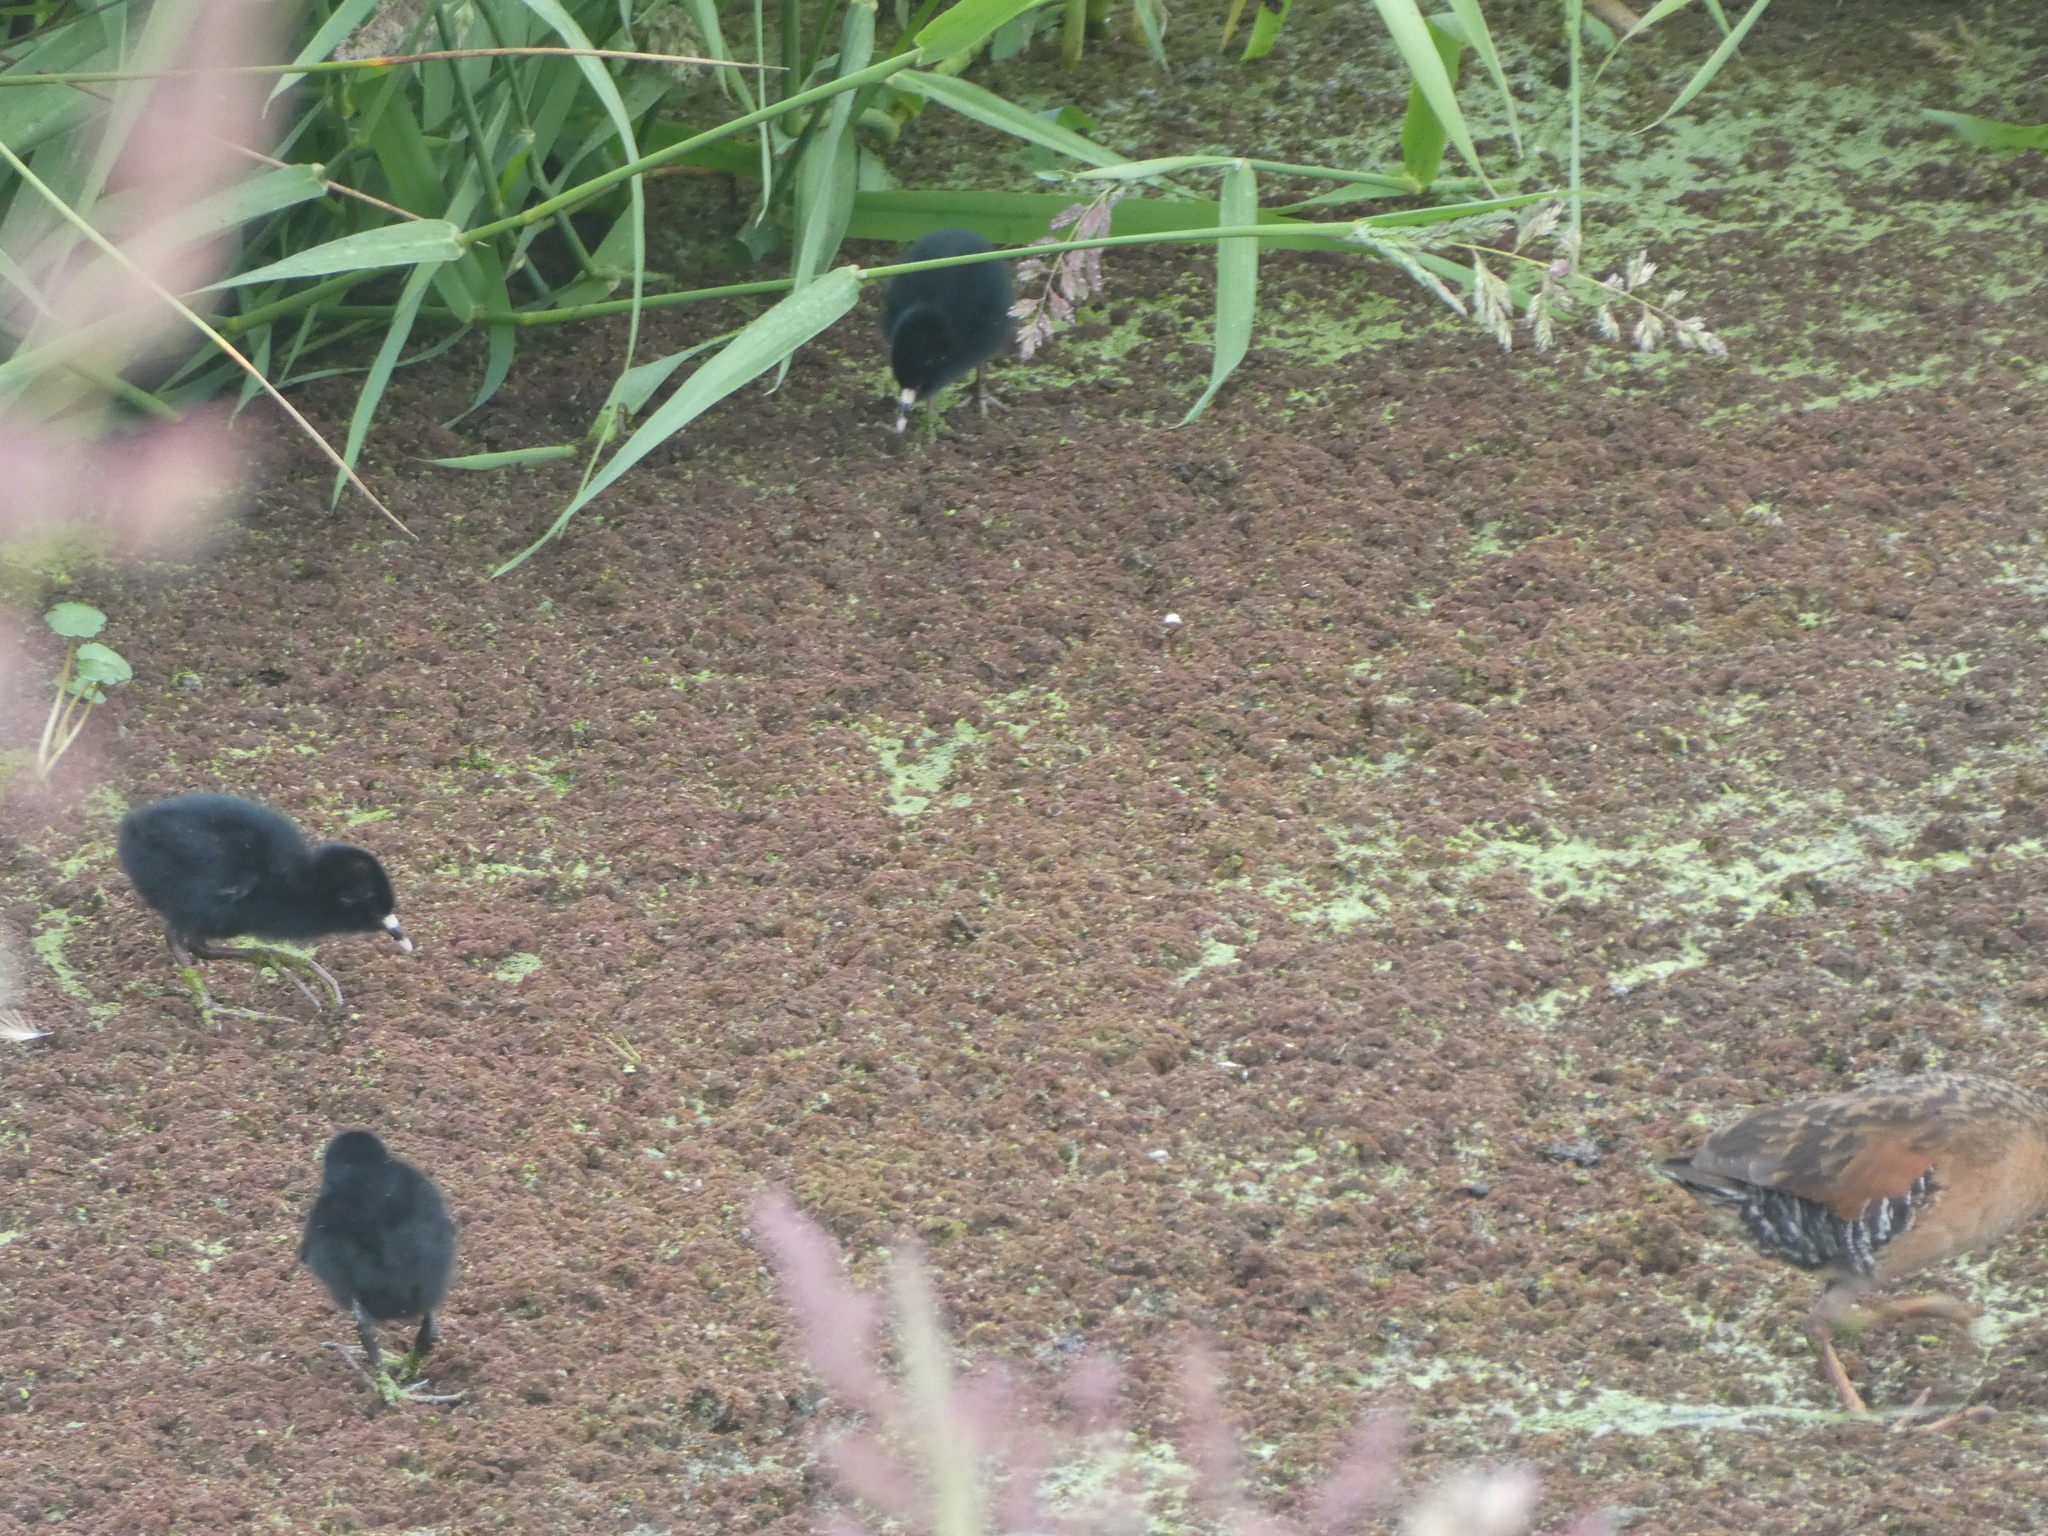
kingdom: Animalia
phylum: Chordata
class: Aves
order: Gruiformes
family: Rallidae
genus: Rallus
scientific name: Rallus limicola
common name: Virginia rail
